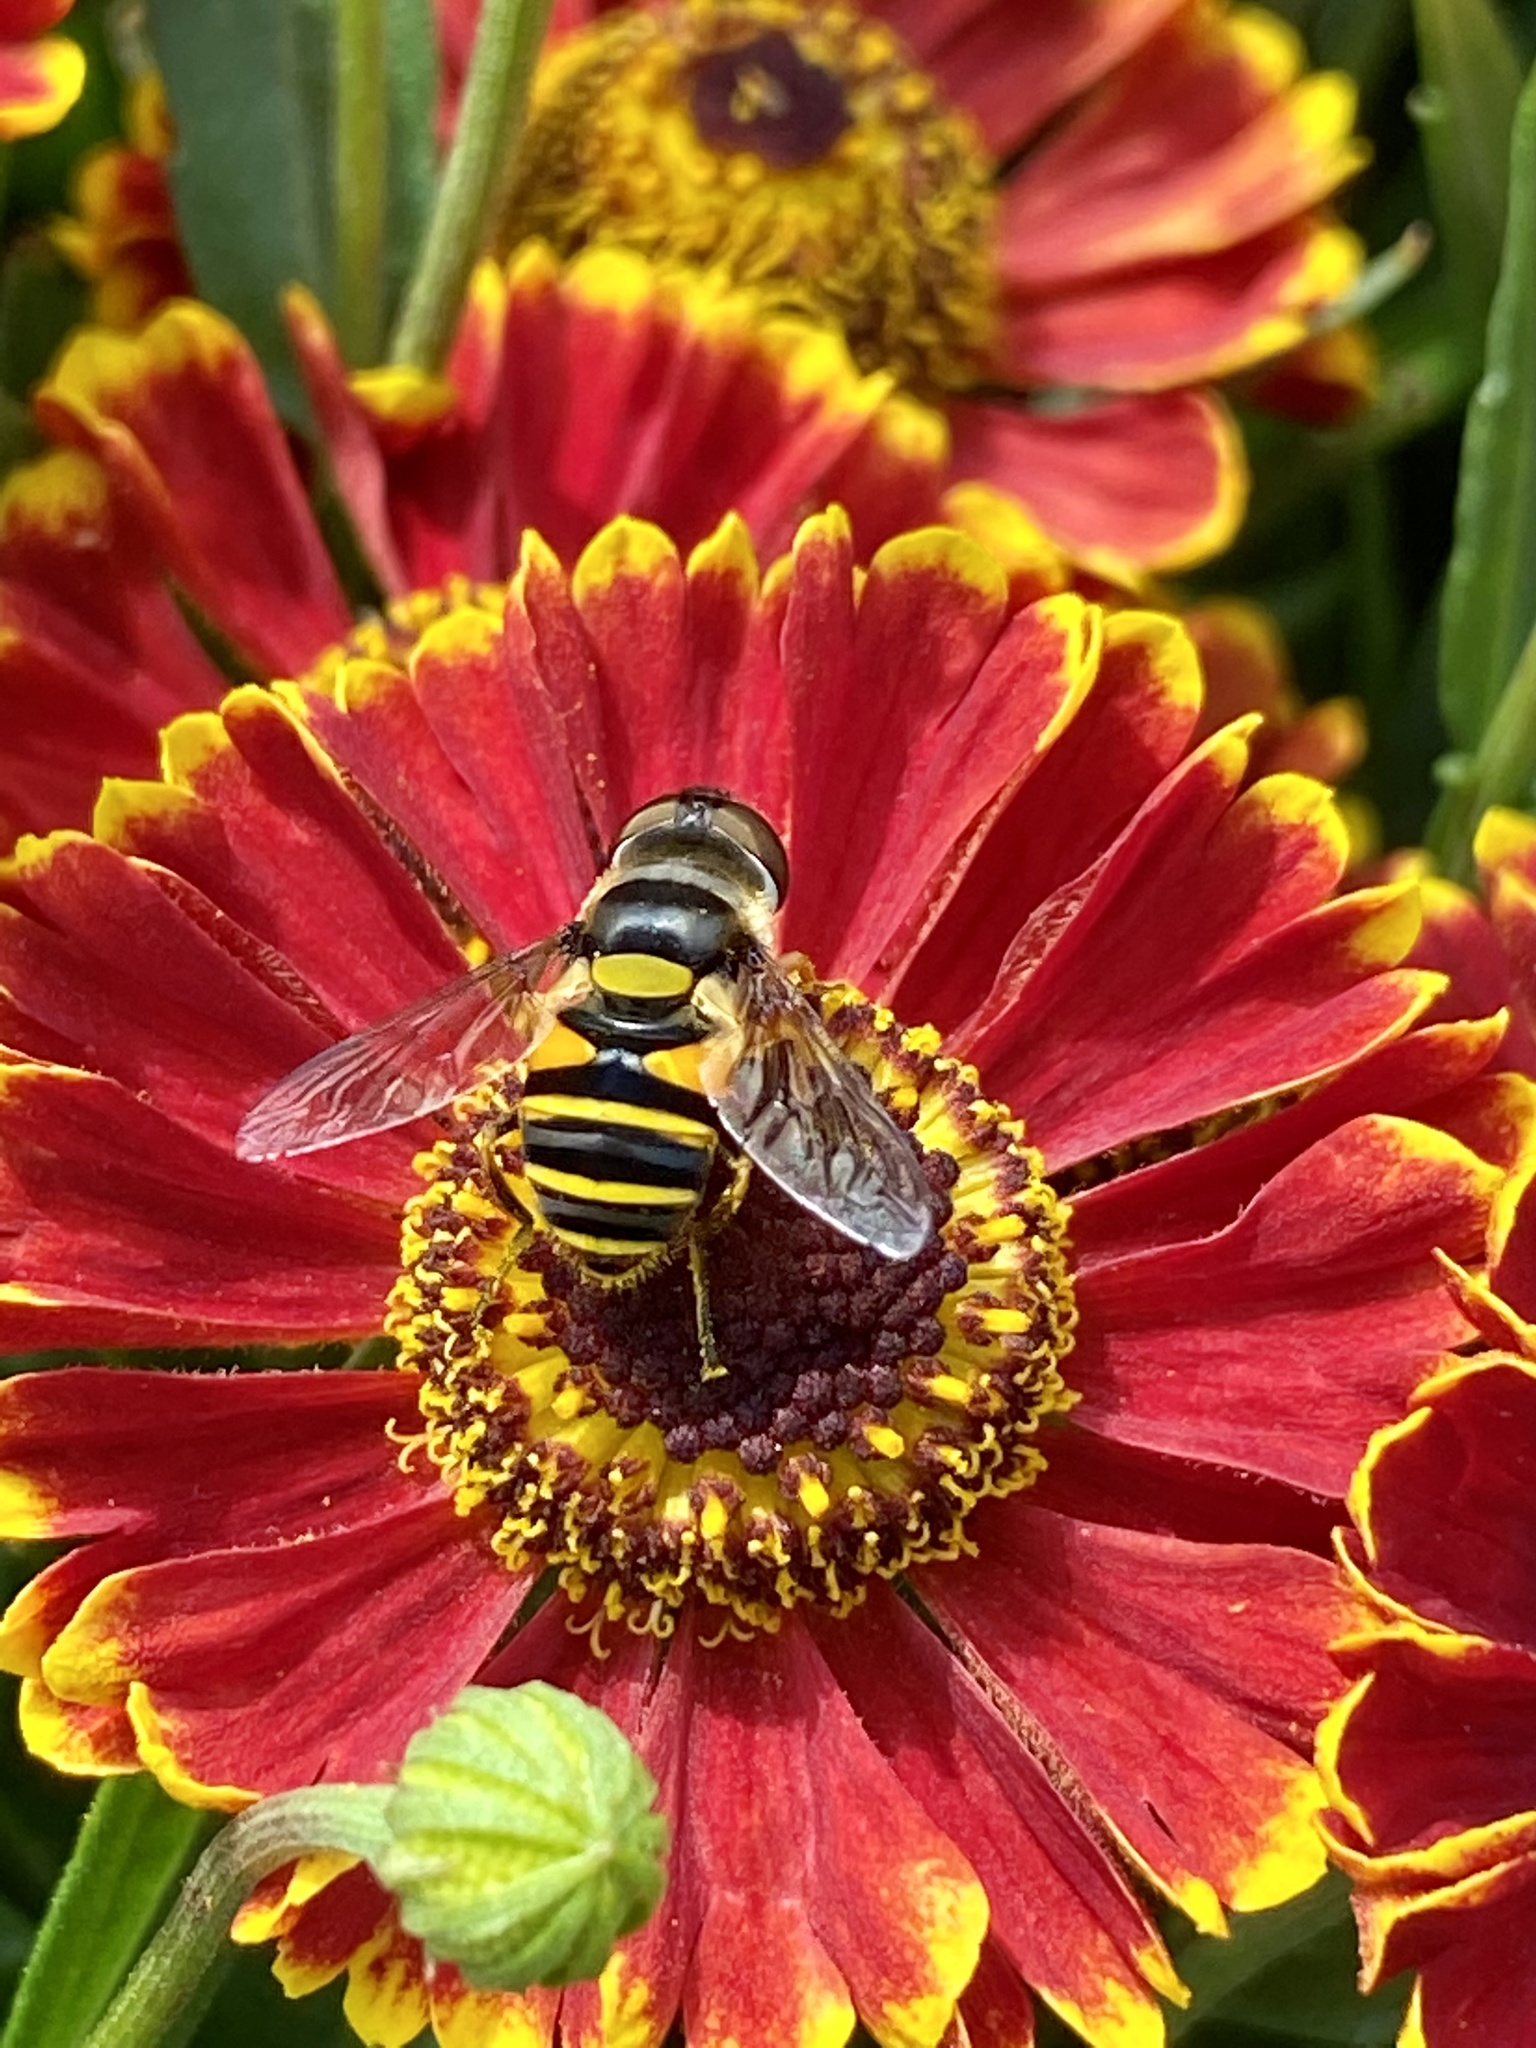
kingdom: Animalia
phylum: Arthropoda
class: Insecta
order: Diptera
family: Syrphidae
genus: Eristalis
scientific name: Eristalis transversa
